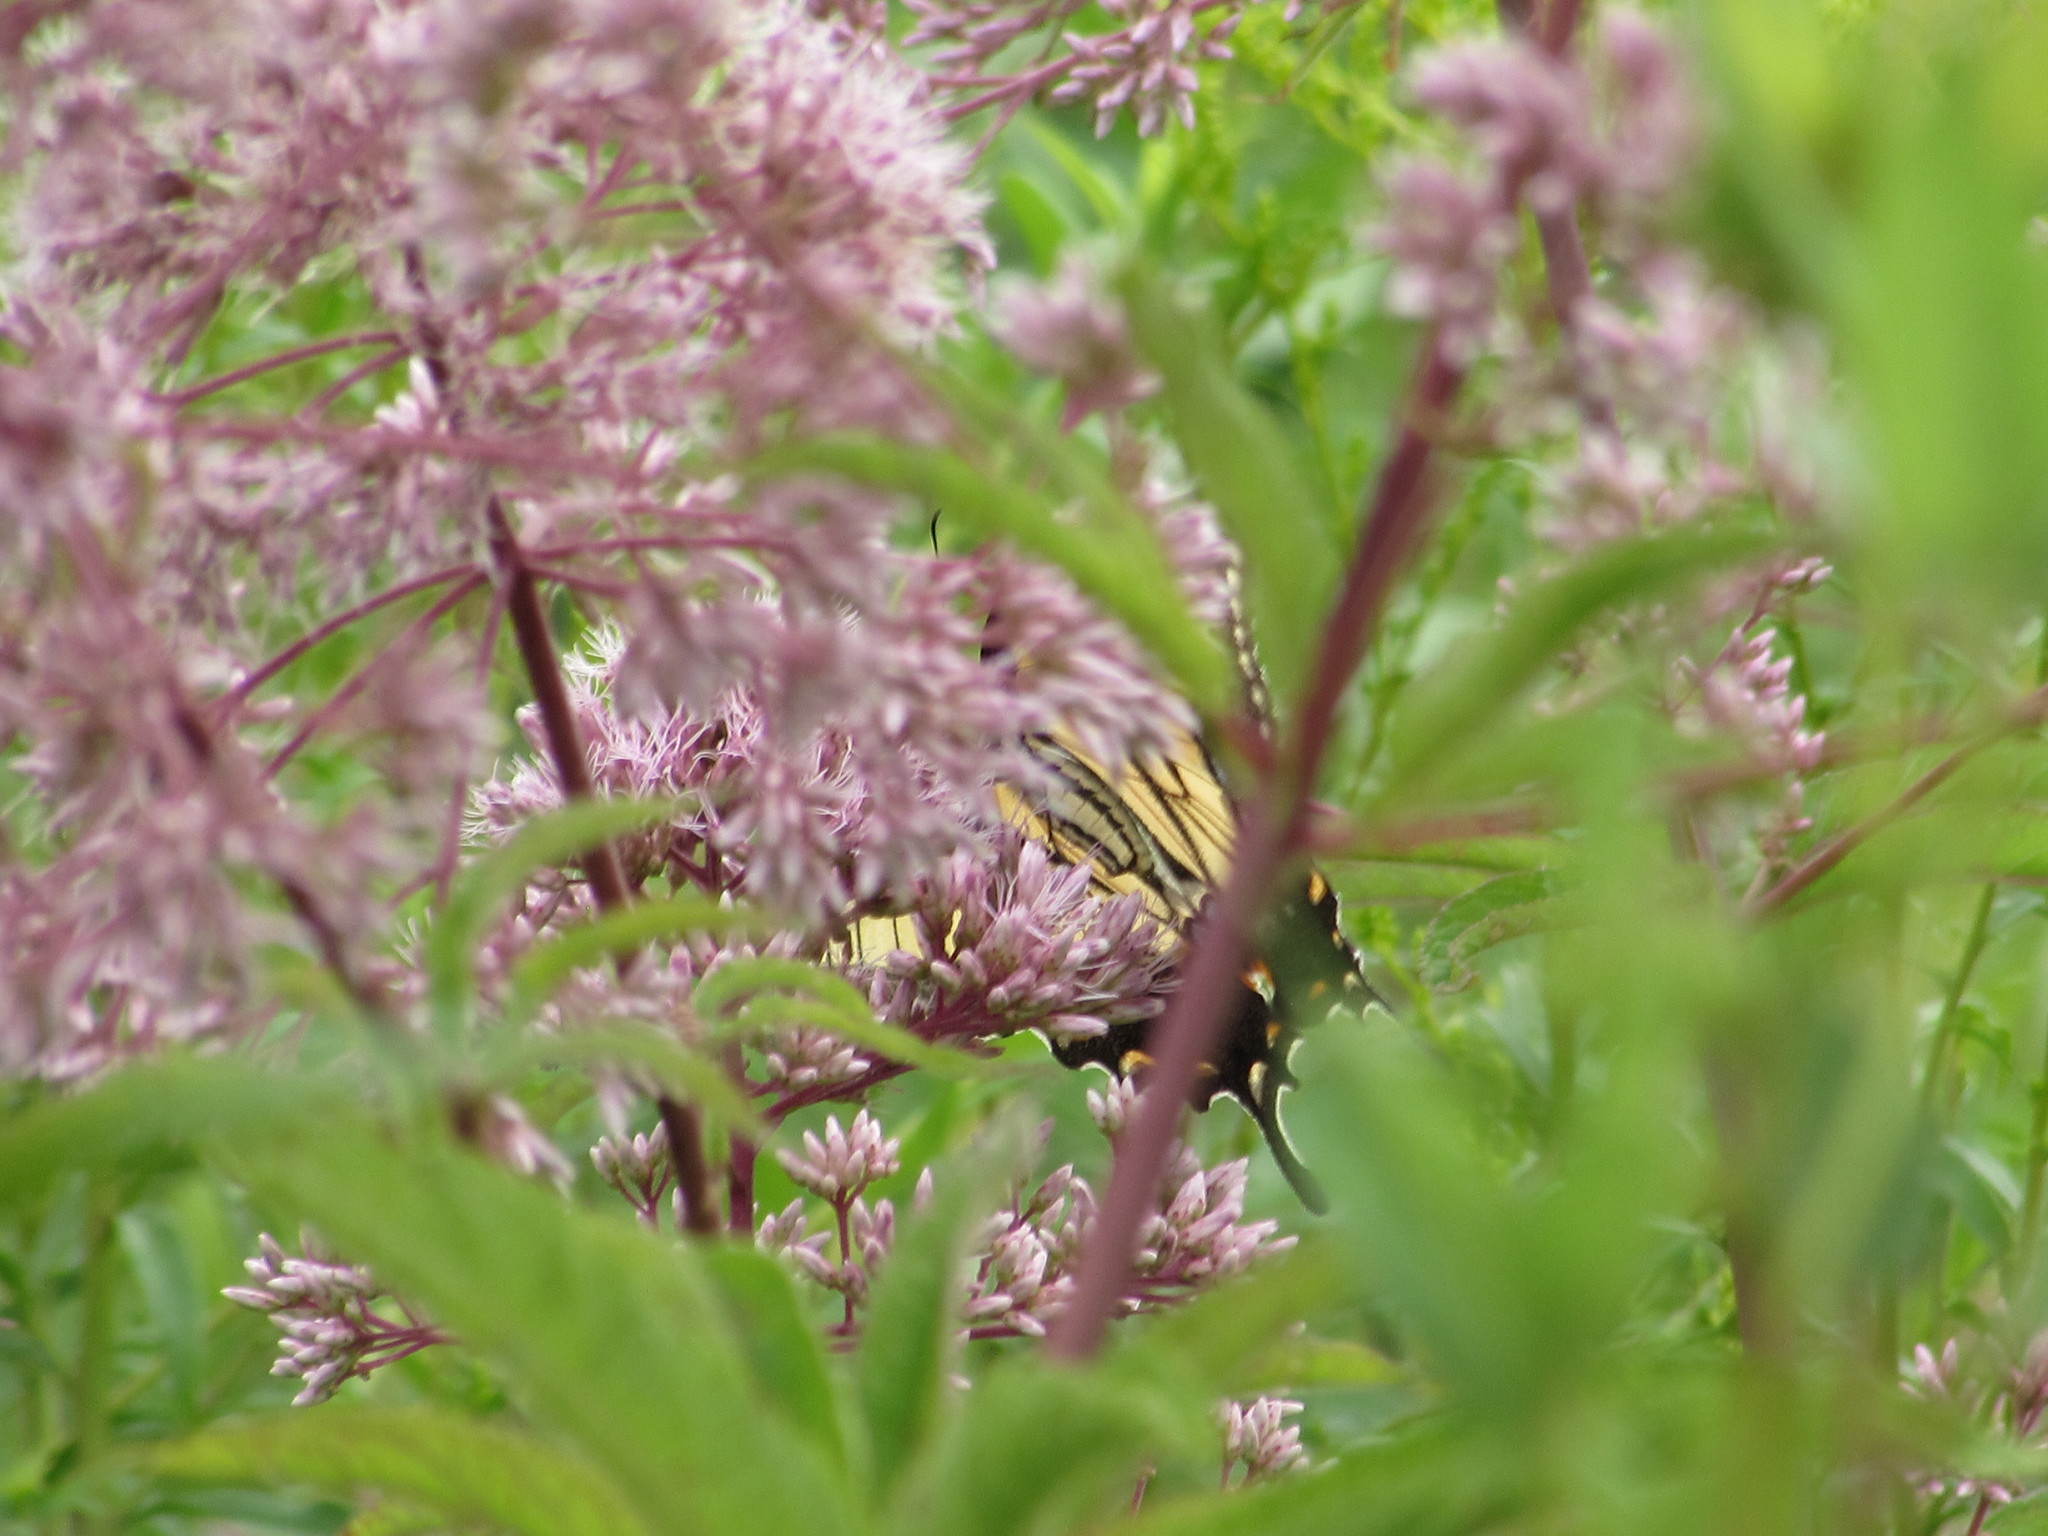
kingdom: Animalia
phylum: Arthropoda
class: Insecta
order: Lepidoptera
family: Papilionidae
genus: Papilio
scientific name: Papilio glaucus
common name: Tiger swallowtail
